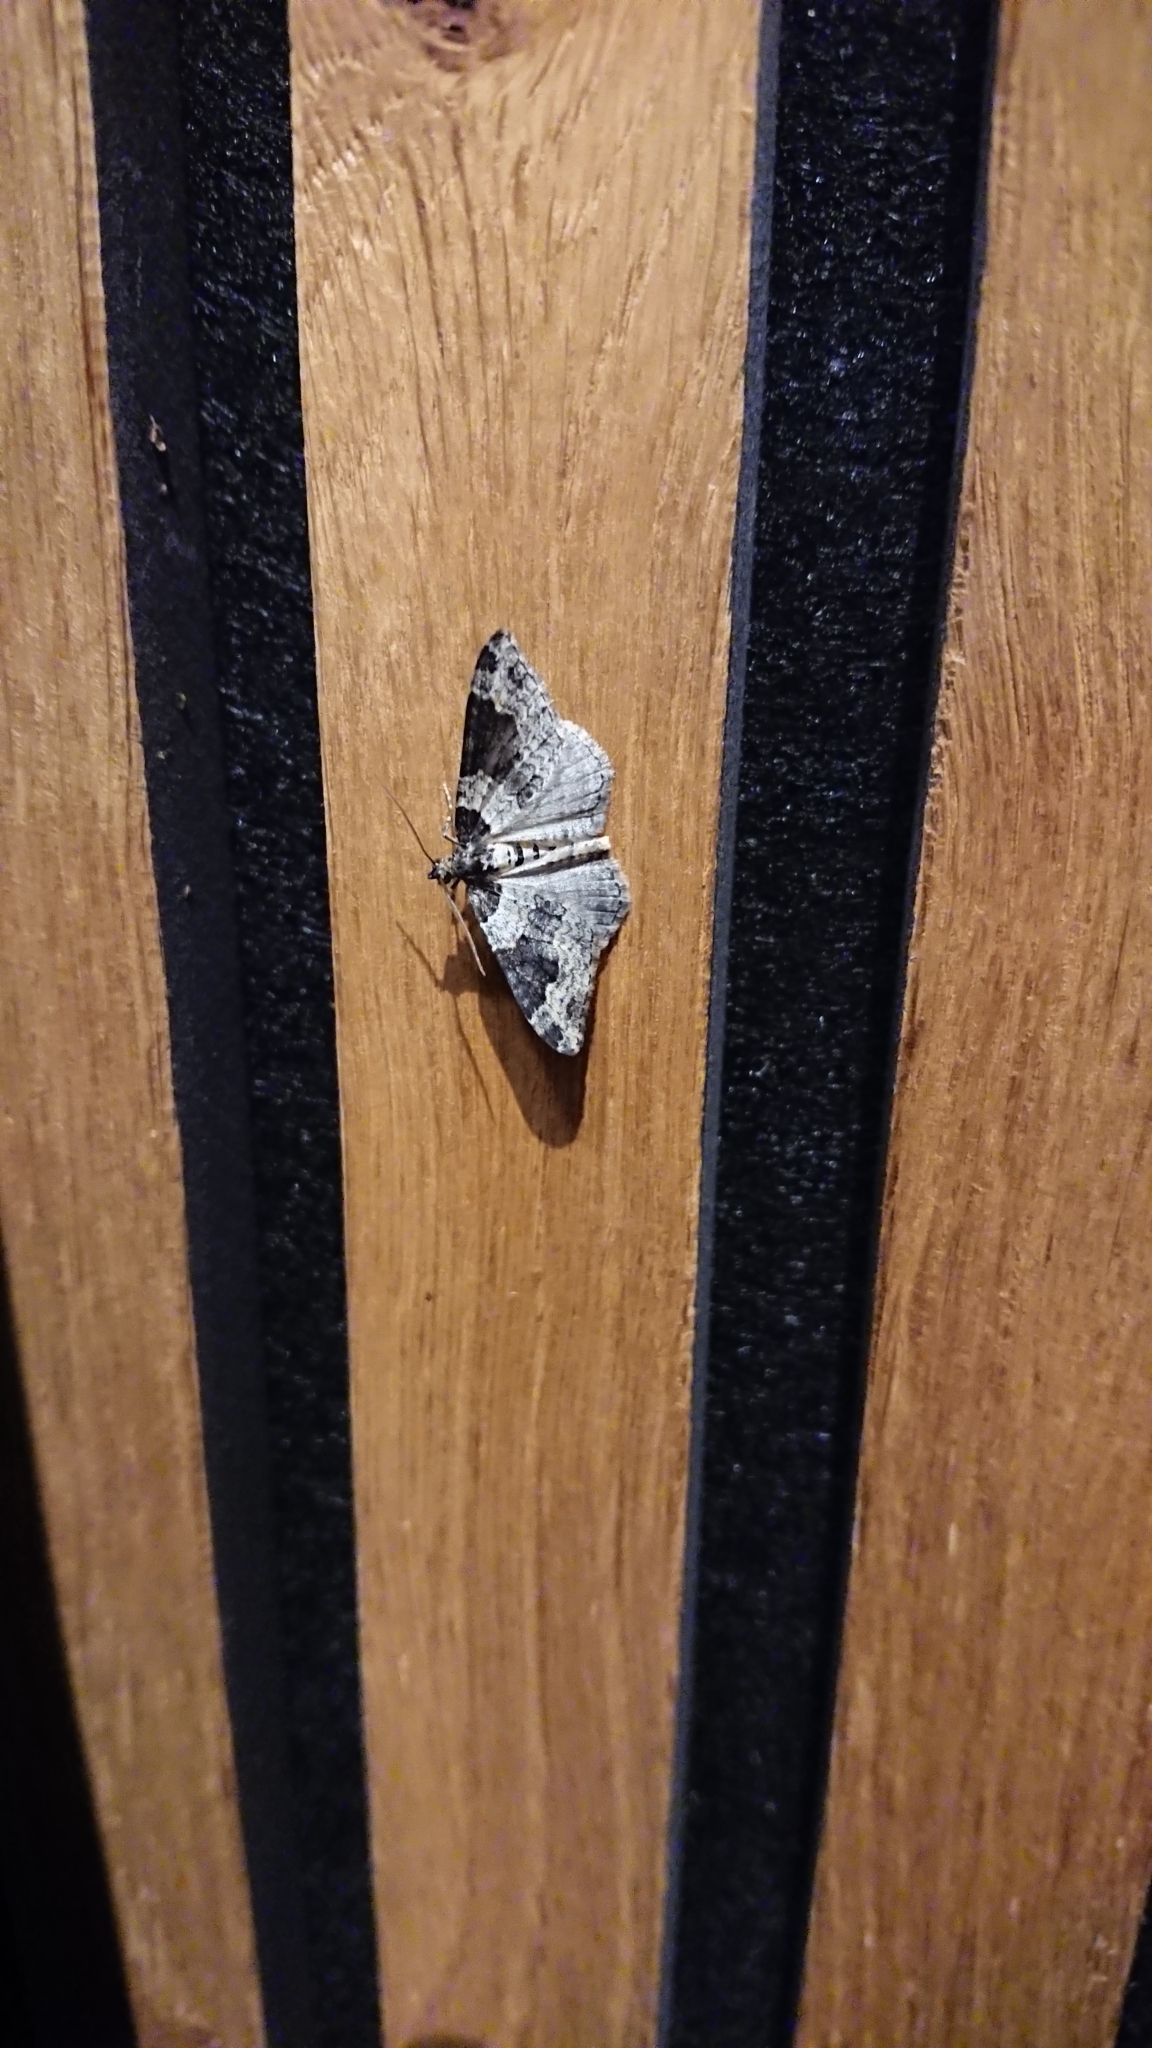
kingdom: Animalia
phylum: Arthropoda
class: Insecta
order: Lepidoptera
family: Geometridae
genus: Xanthorhoe
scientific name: Xanthorhoe fluctuata
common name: Garden carpet
